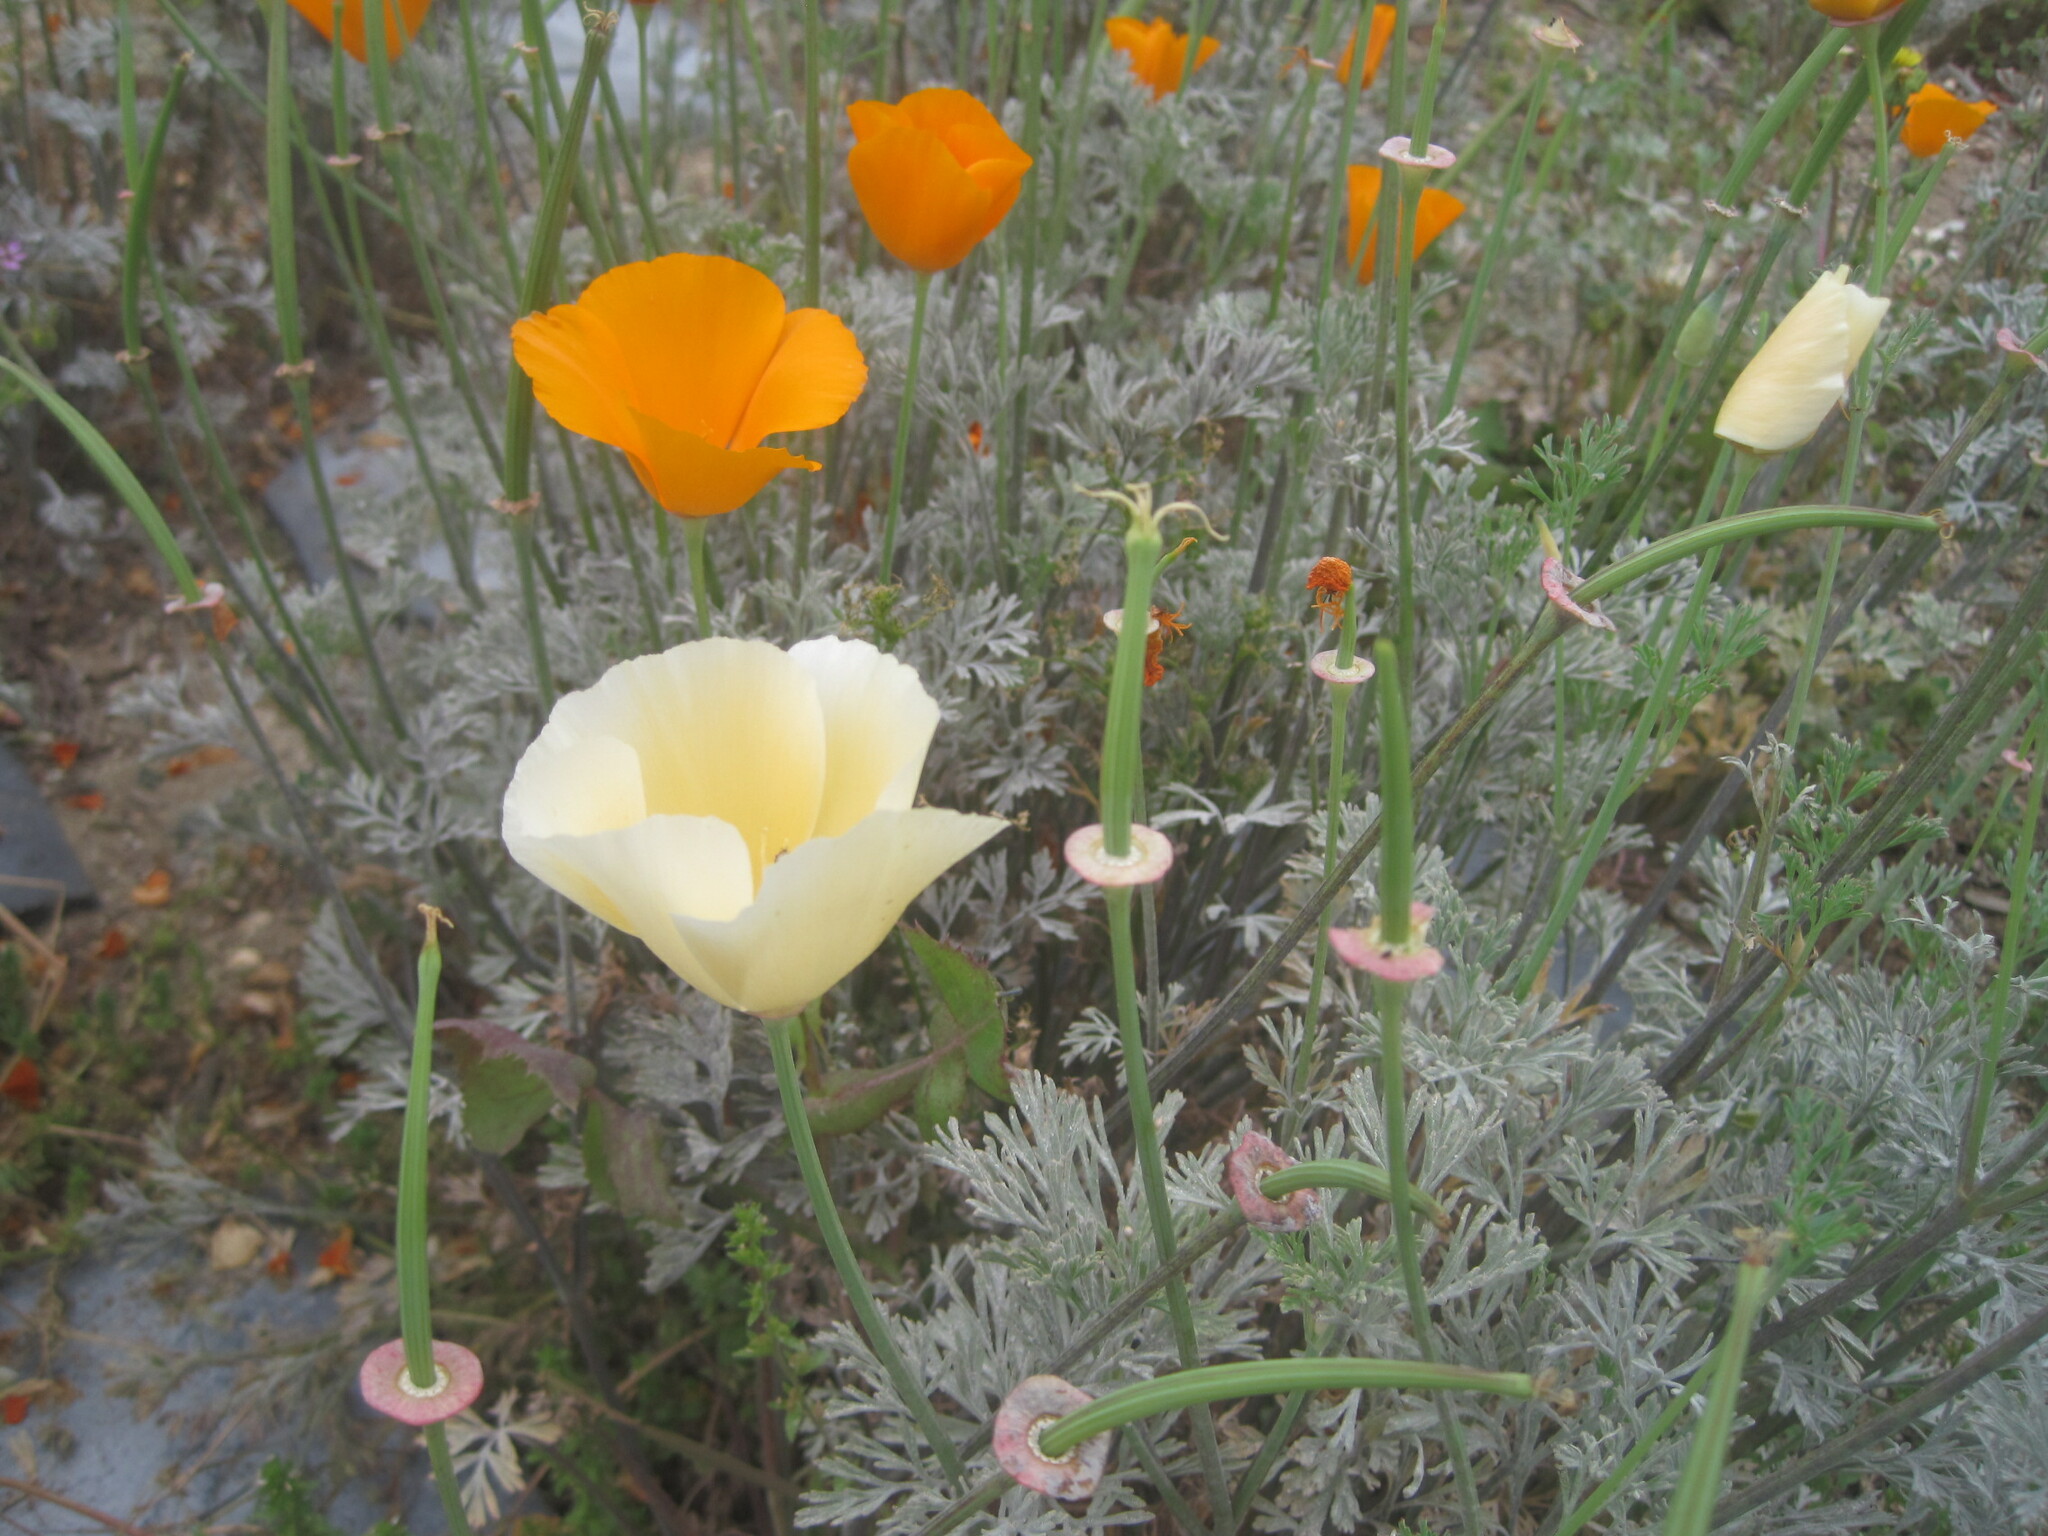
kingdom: Plantae
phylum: Tracheophyta
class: Magnoliopsida
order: Ranunculales
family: Papaveraceae
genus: Eschscholzia
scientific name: Eschscholzia californica
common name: California poppy
